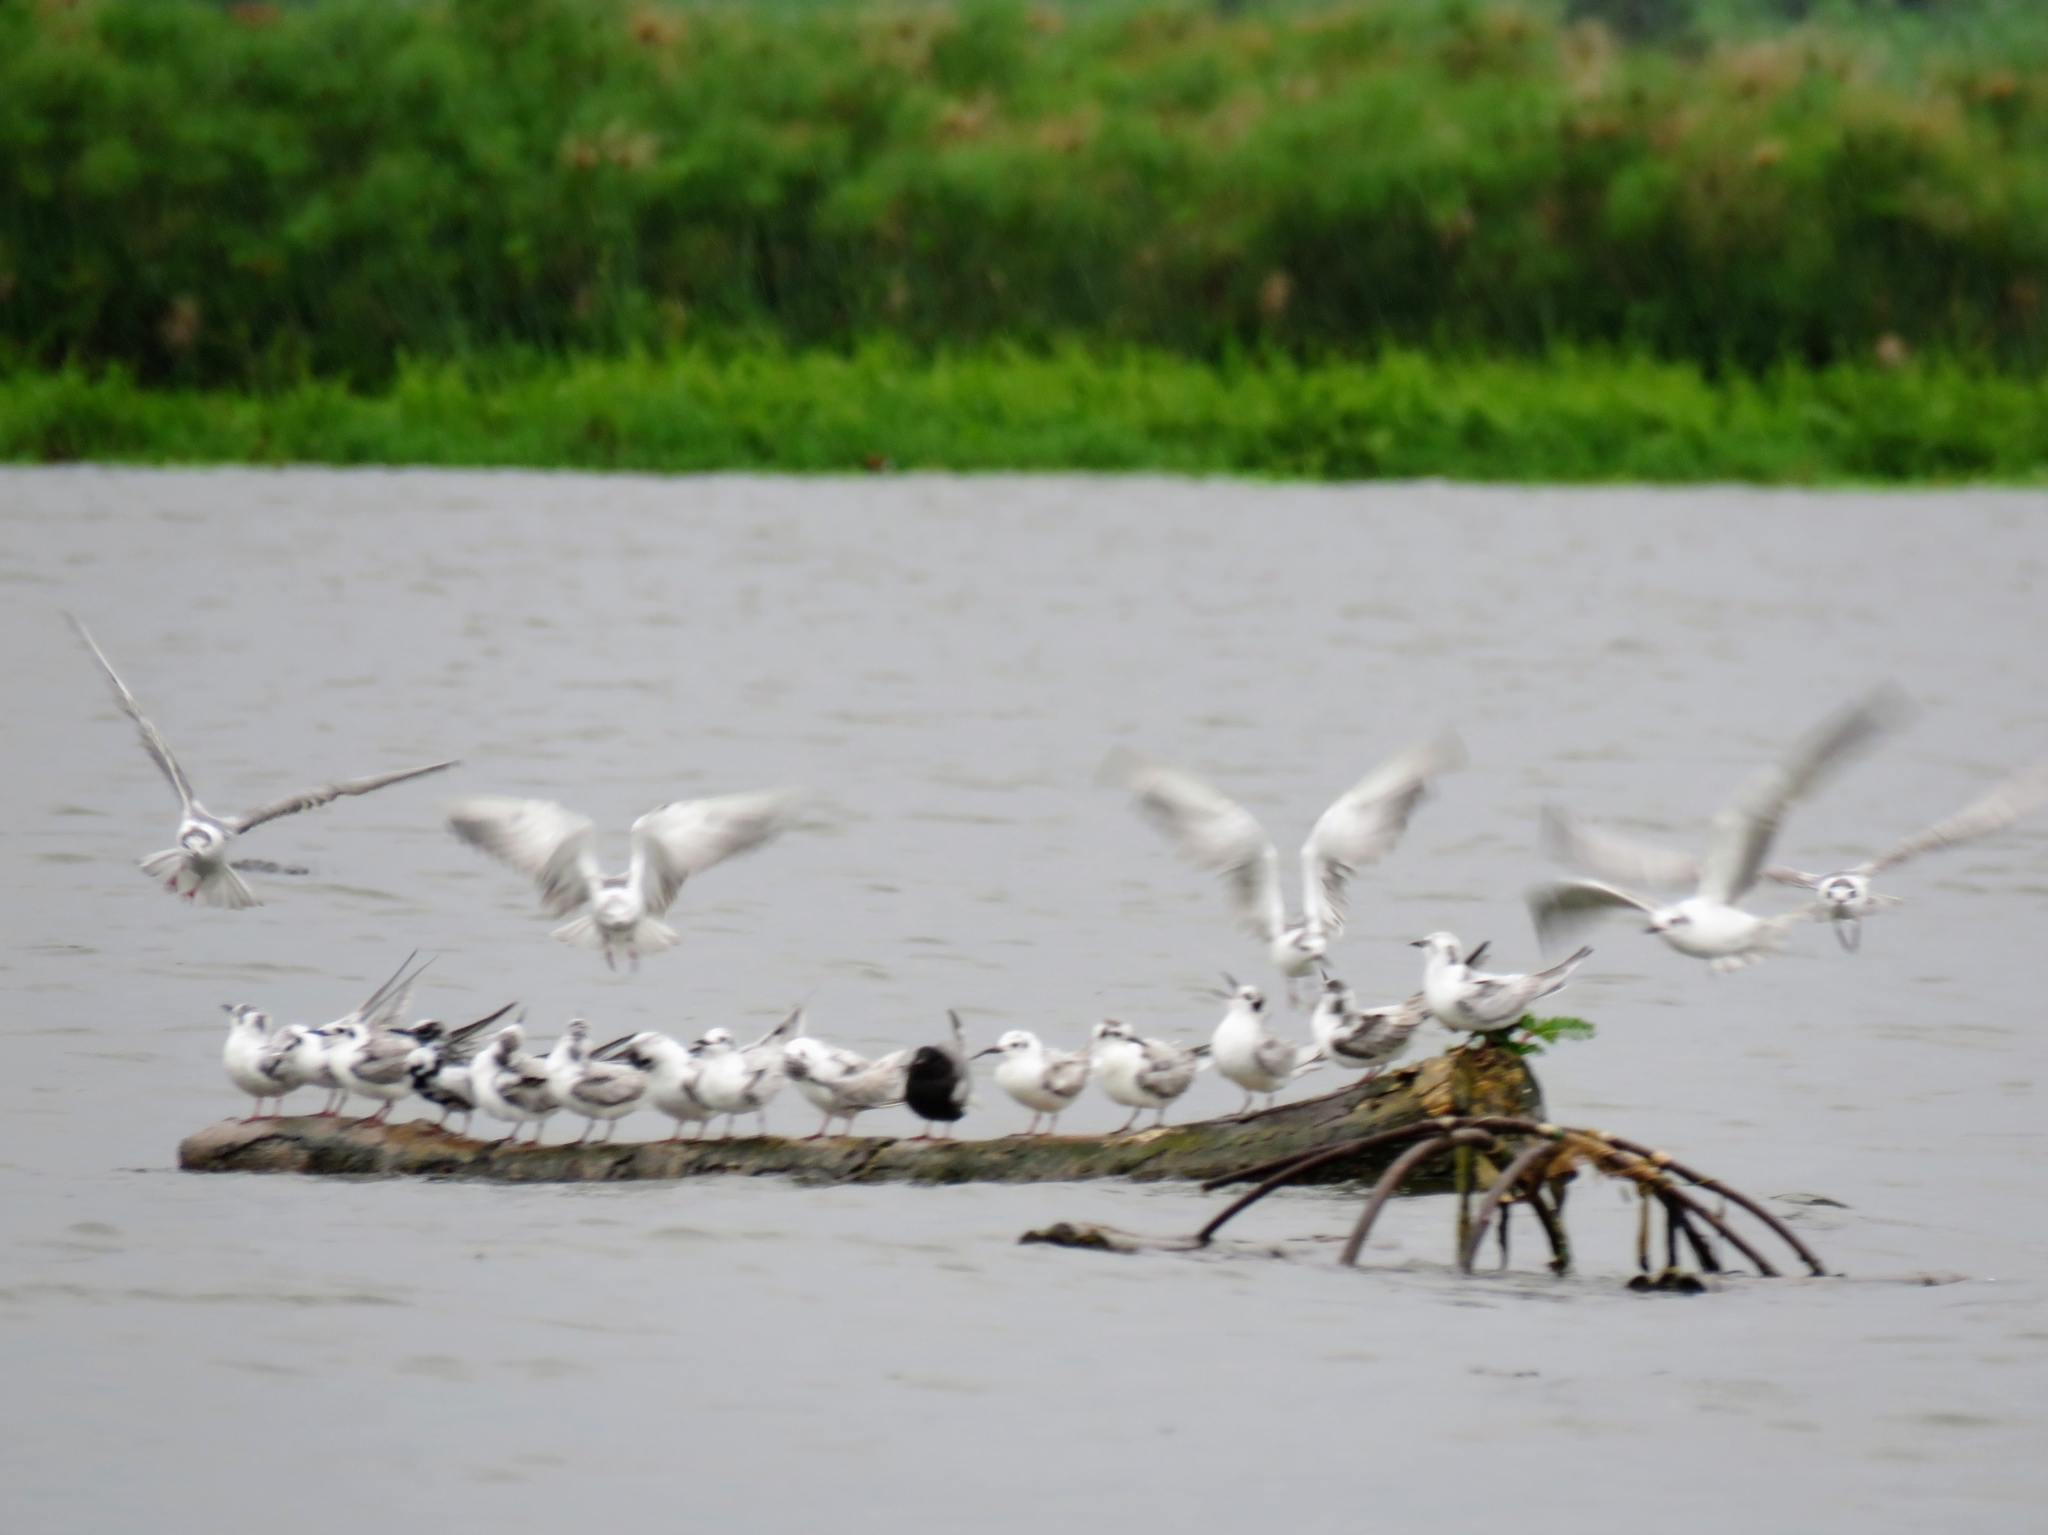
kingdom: Animalia
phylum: Chordata
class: Aves
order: Charadriiformes
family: Laridae
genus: Chlidonias
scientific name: Chlidonias leucopterus
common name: White-winged tern
